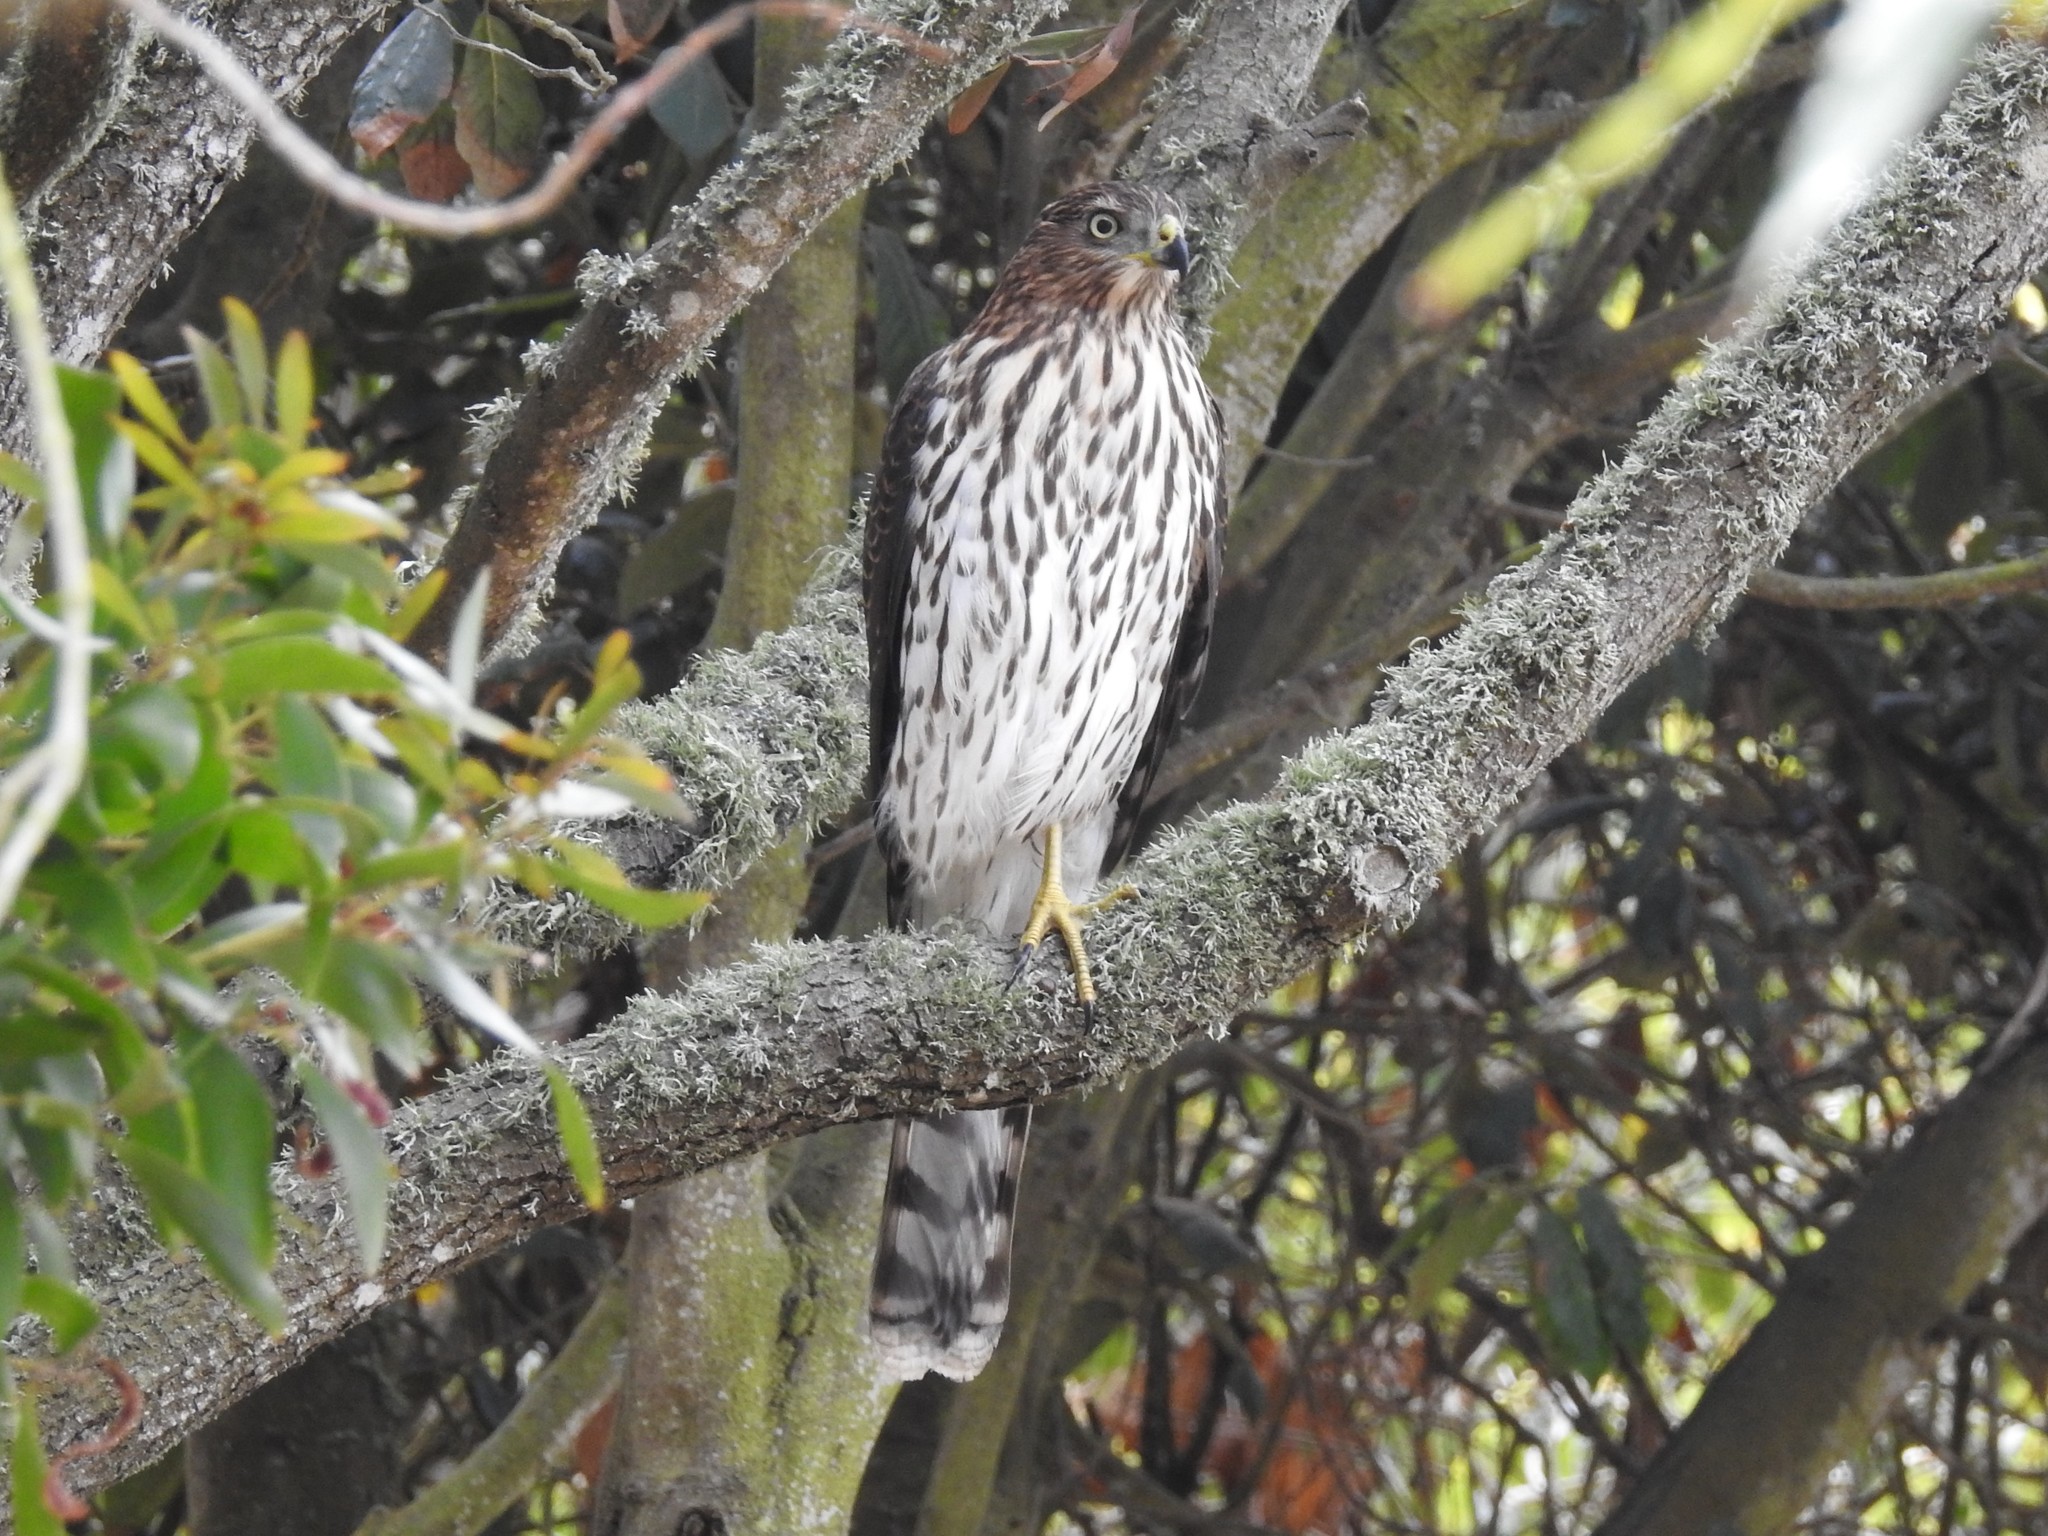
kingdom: Animalia
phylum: Chordata
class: Aves
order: Accipitriformes
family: Accipitridae
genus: Accipiter
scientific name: Accipiter cooperii
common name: Cooper's hawk
